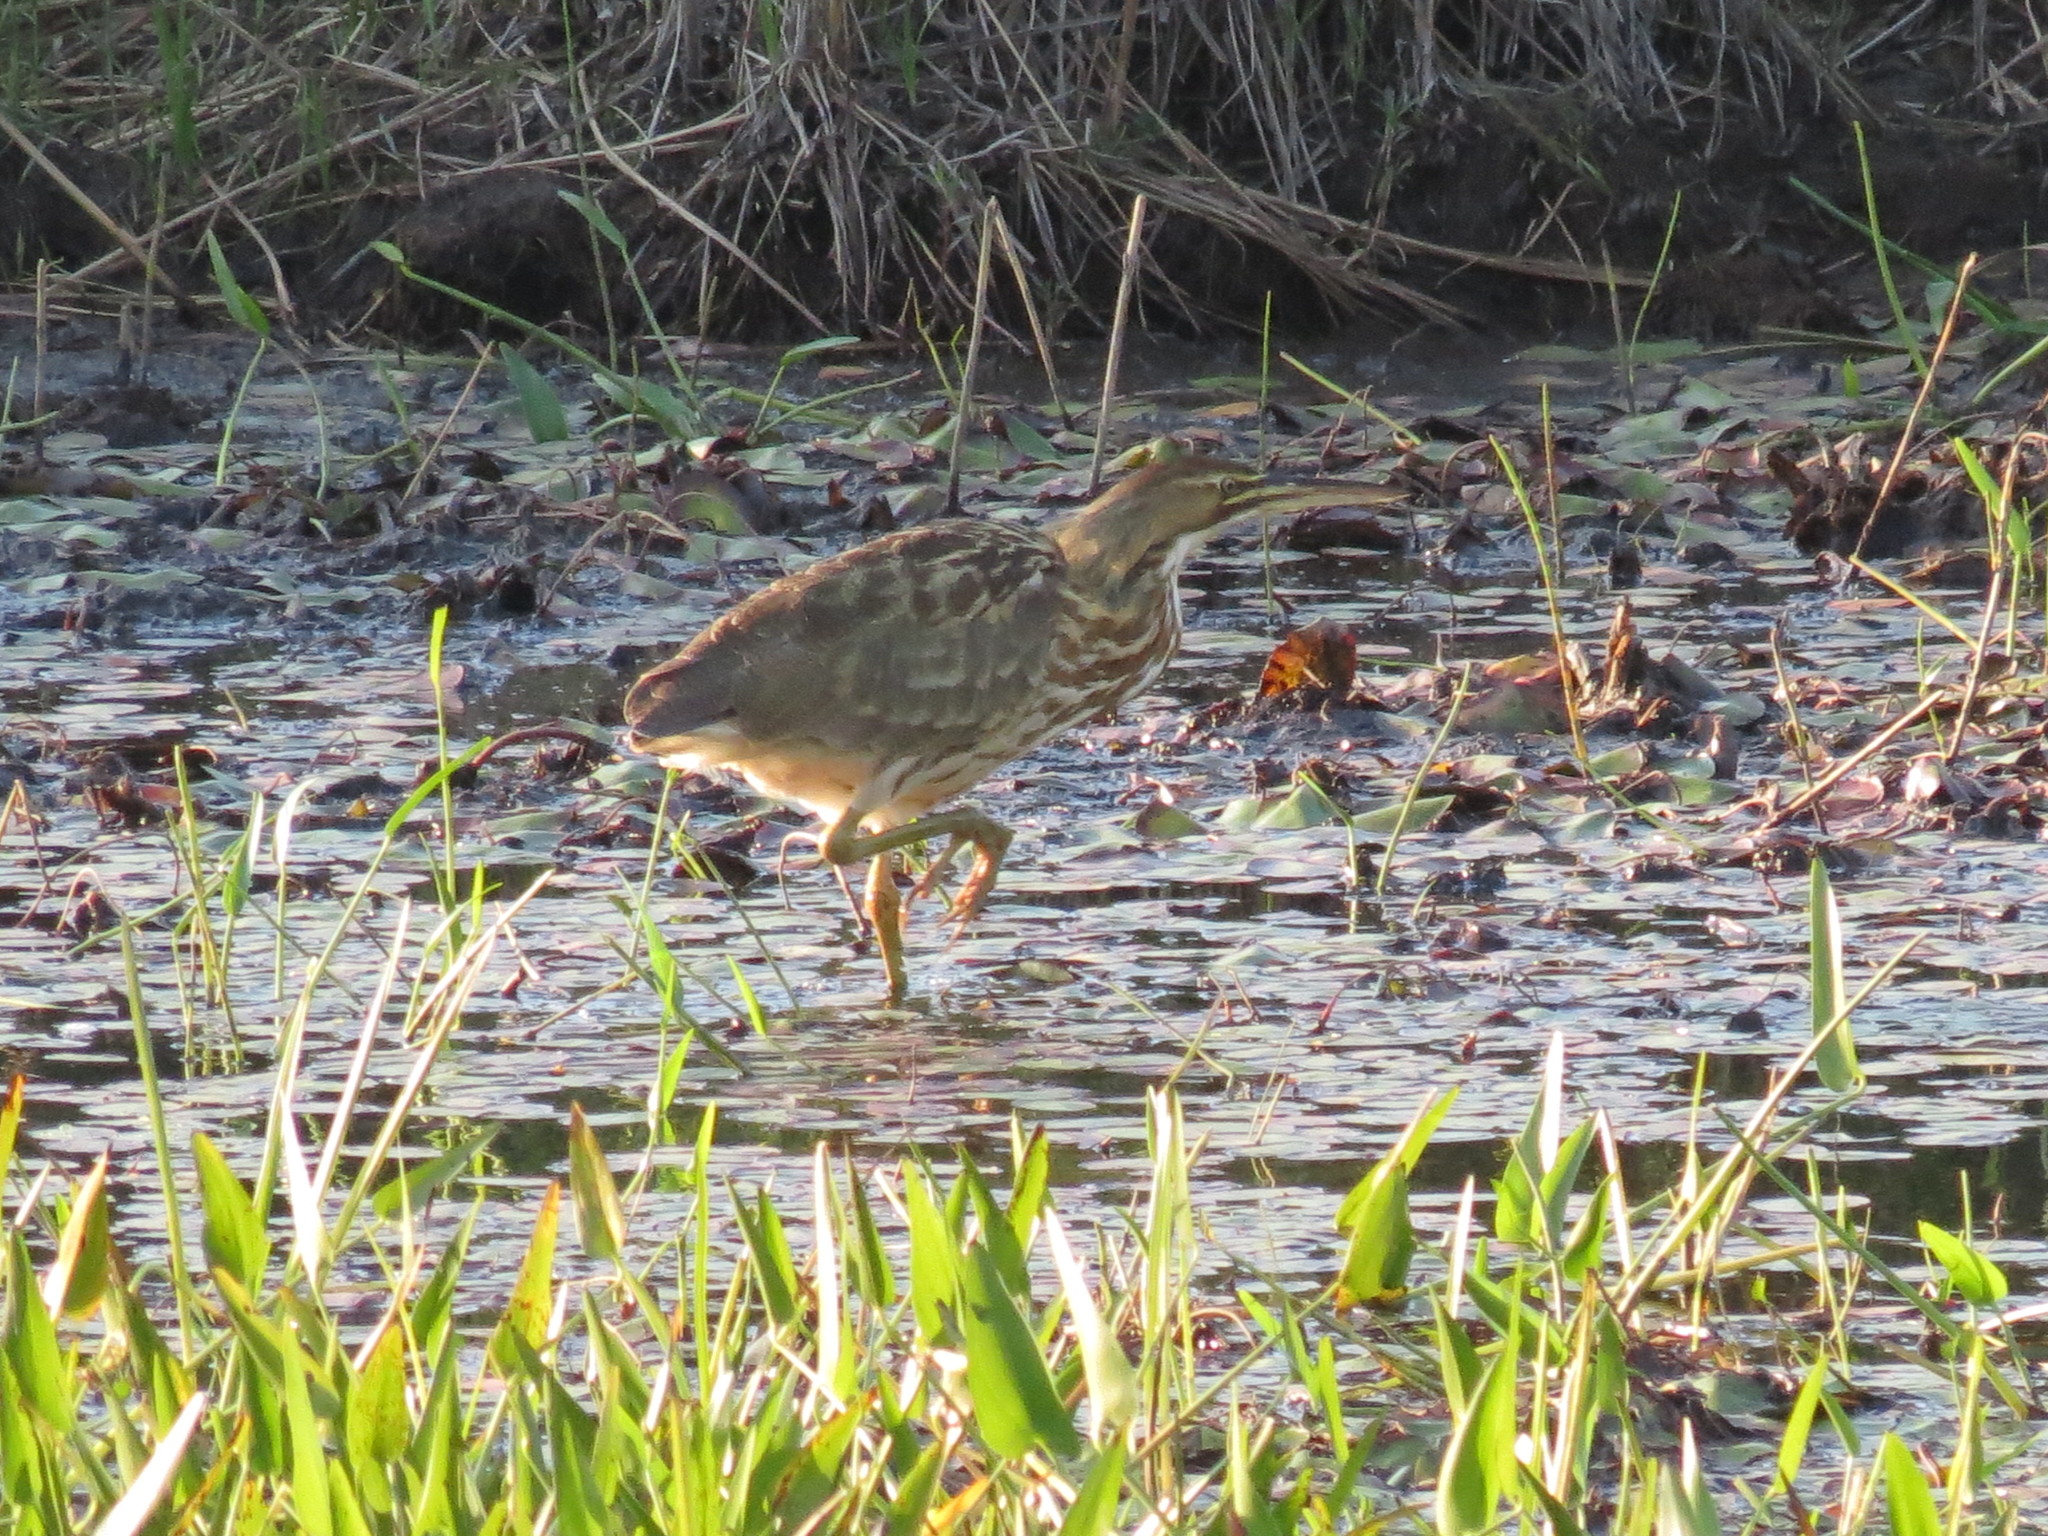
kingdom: Animalia
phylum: Chordata
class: Aves
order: Pelecaniformes
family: Ardeidae
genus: Botaurus
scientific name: Botaurus lentiginosus
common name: American bittern
